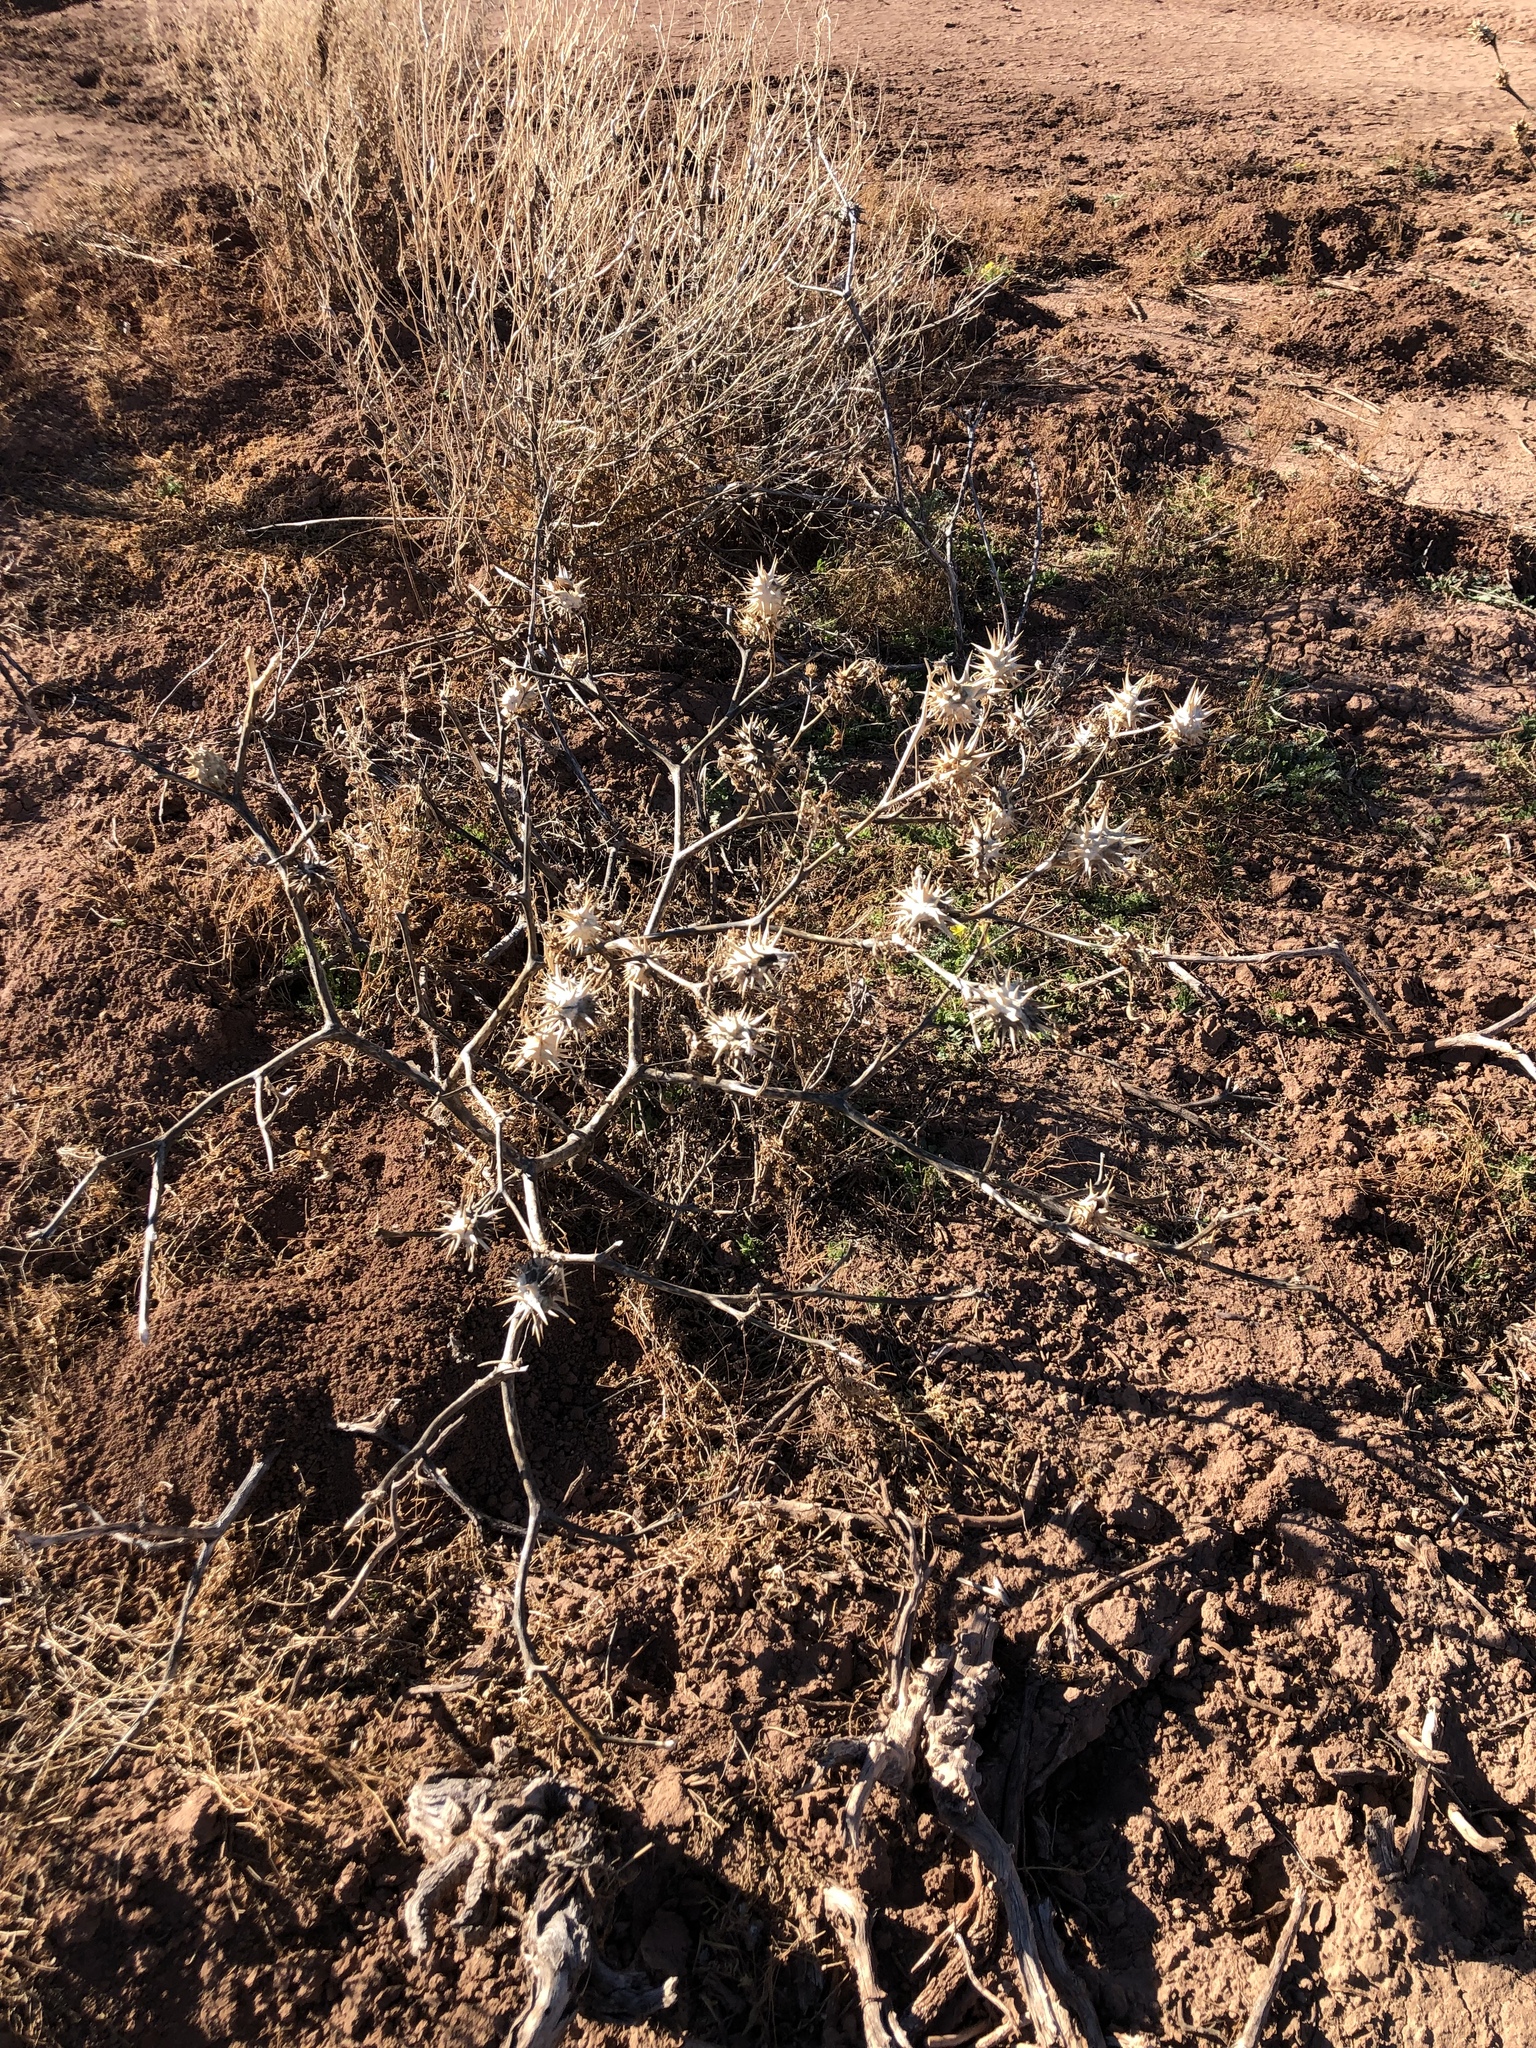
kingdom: Plantae
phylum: Tracheophyta
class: Magnoliopsida
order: Solanales
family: Solanaceae
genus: Datura
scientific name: Datura quercifolia
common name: Oak-leaf datura
